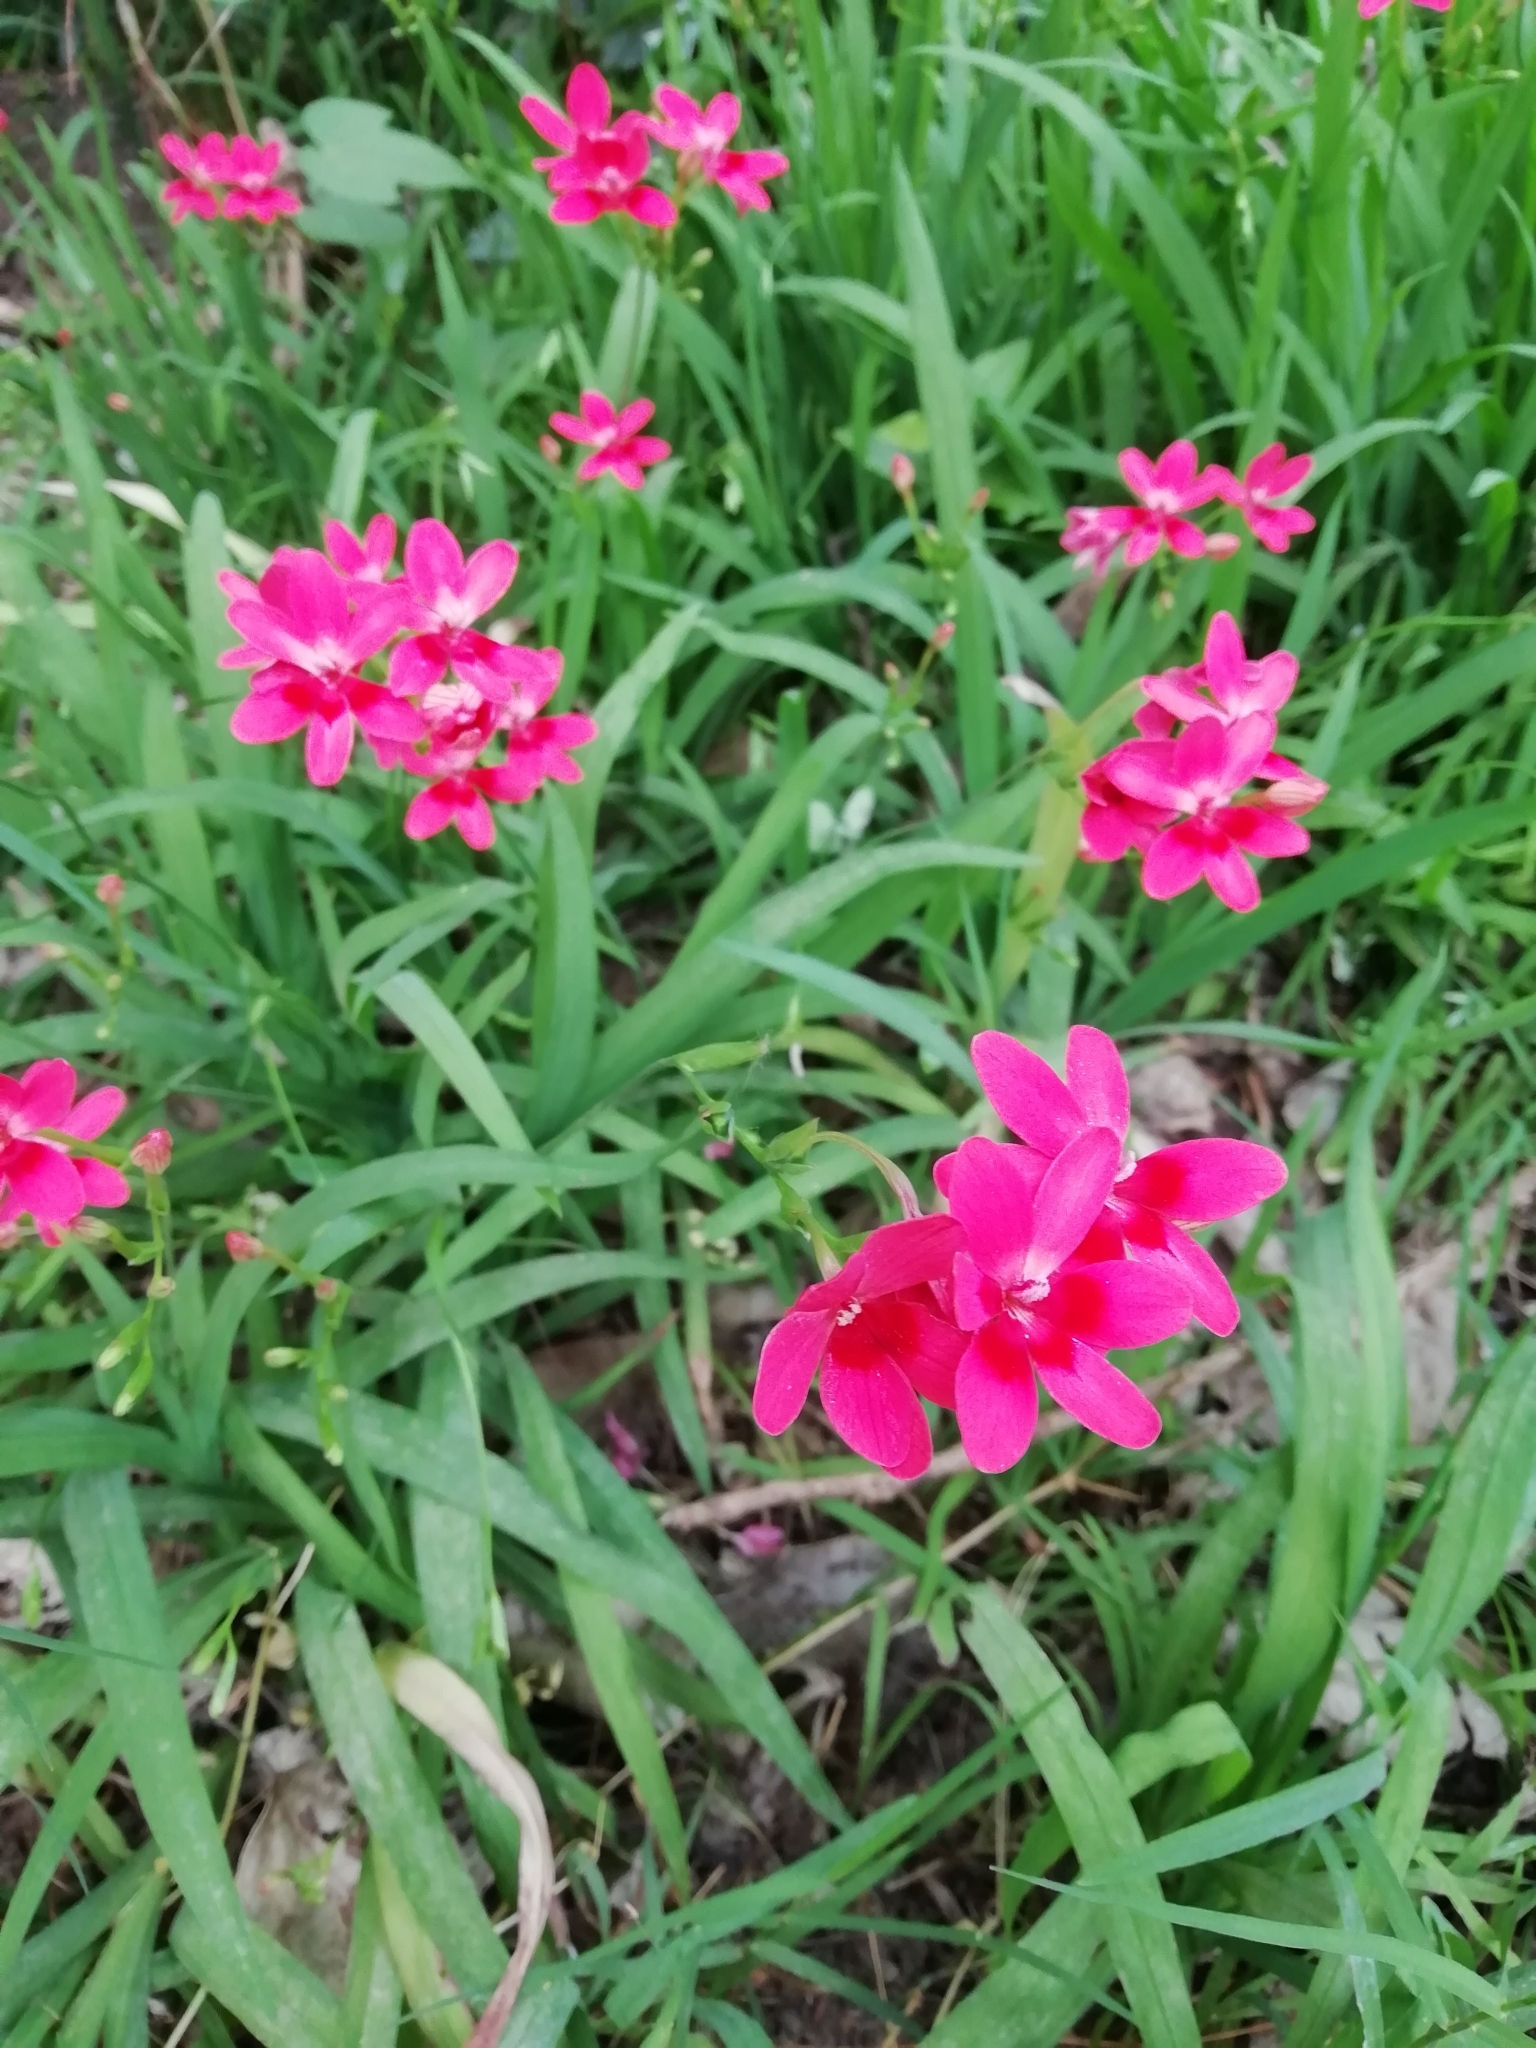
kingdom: Plantae
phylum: Tracheophyta
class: Liliopsida
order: Asparagales
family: Iridaceae
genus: Freesia
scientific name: Freesia laxa
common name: False freesia
